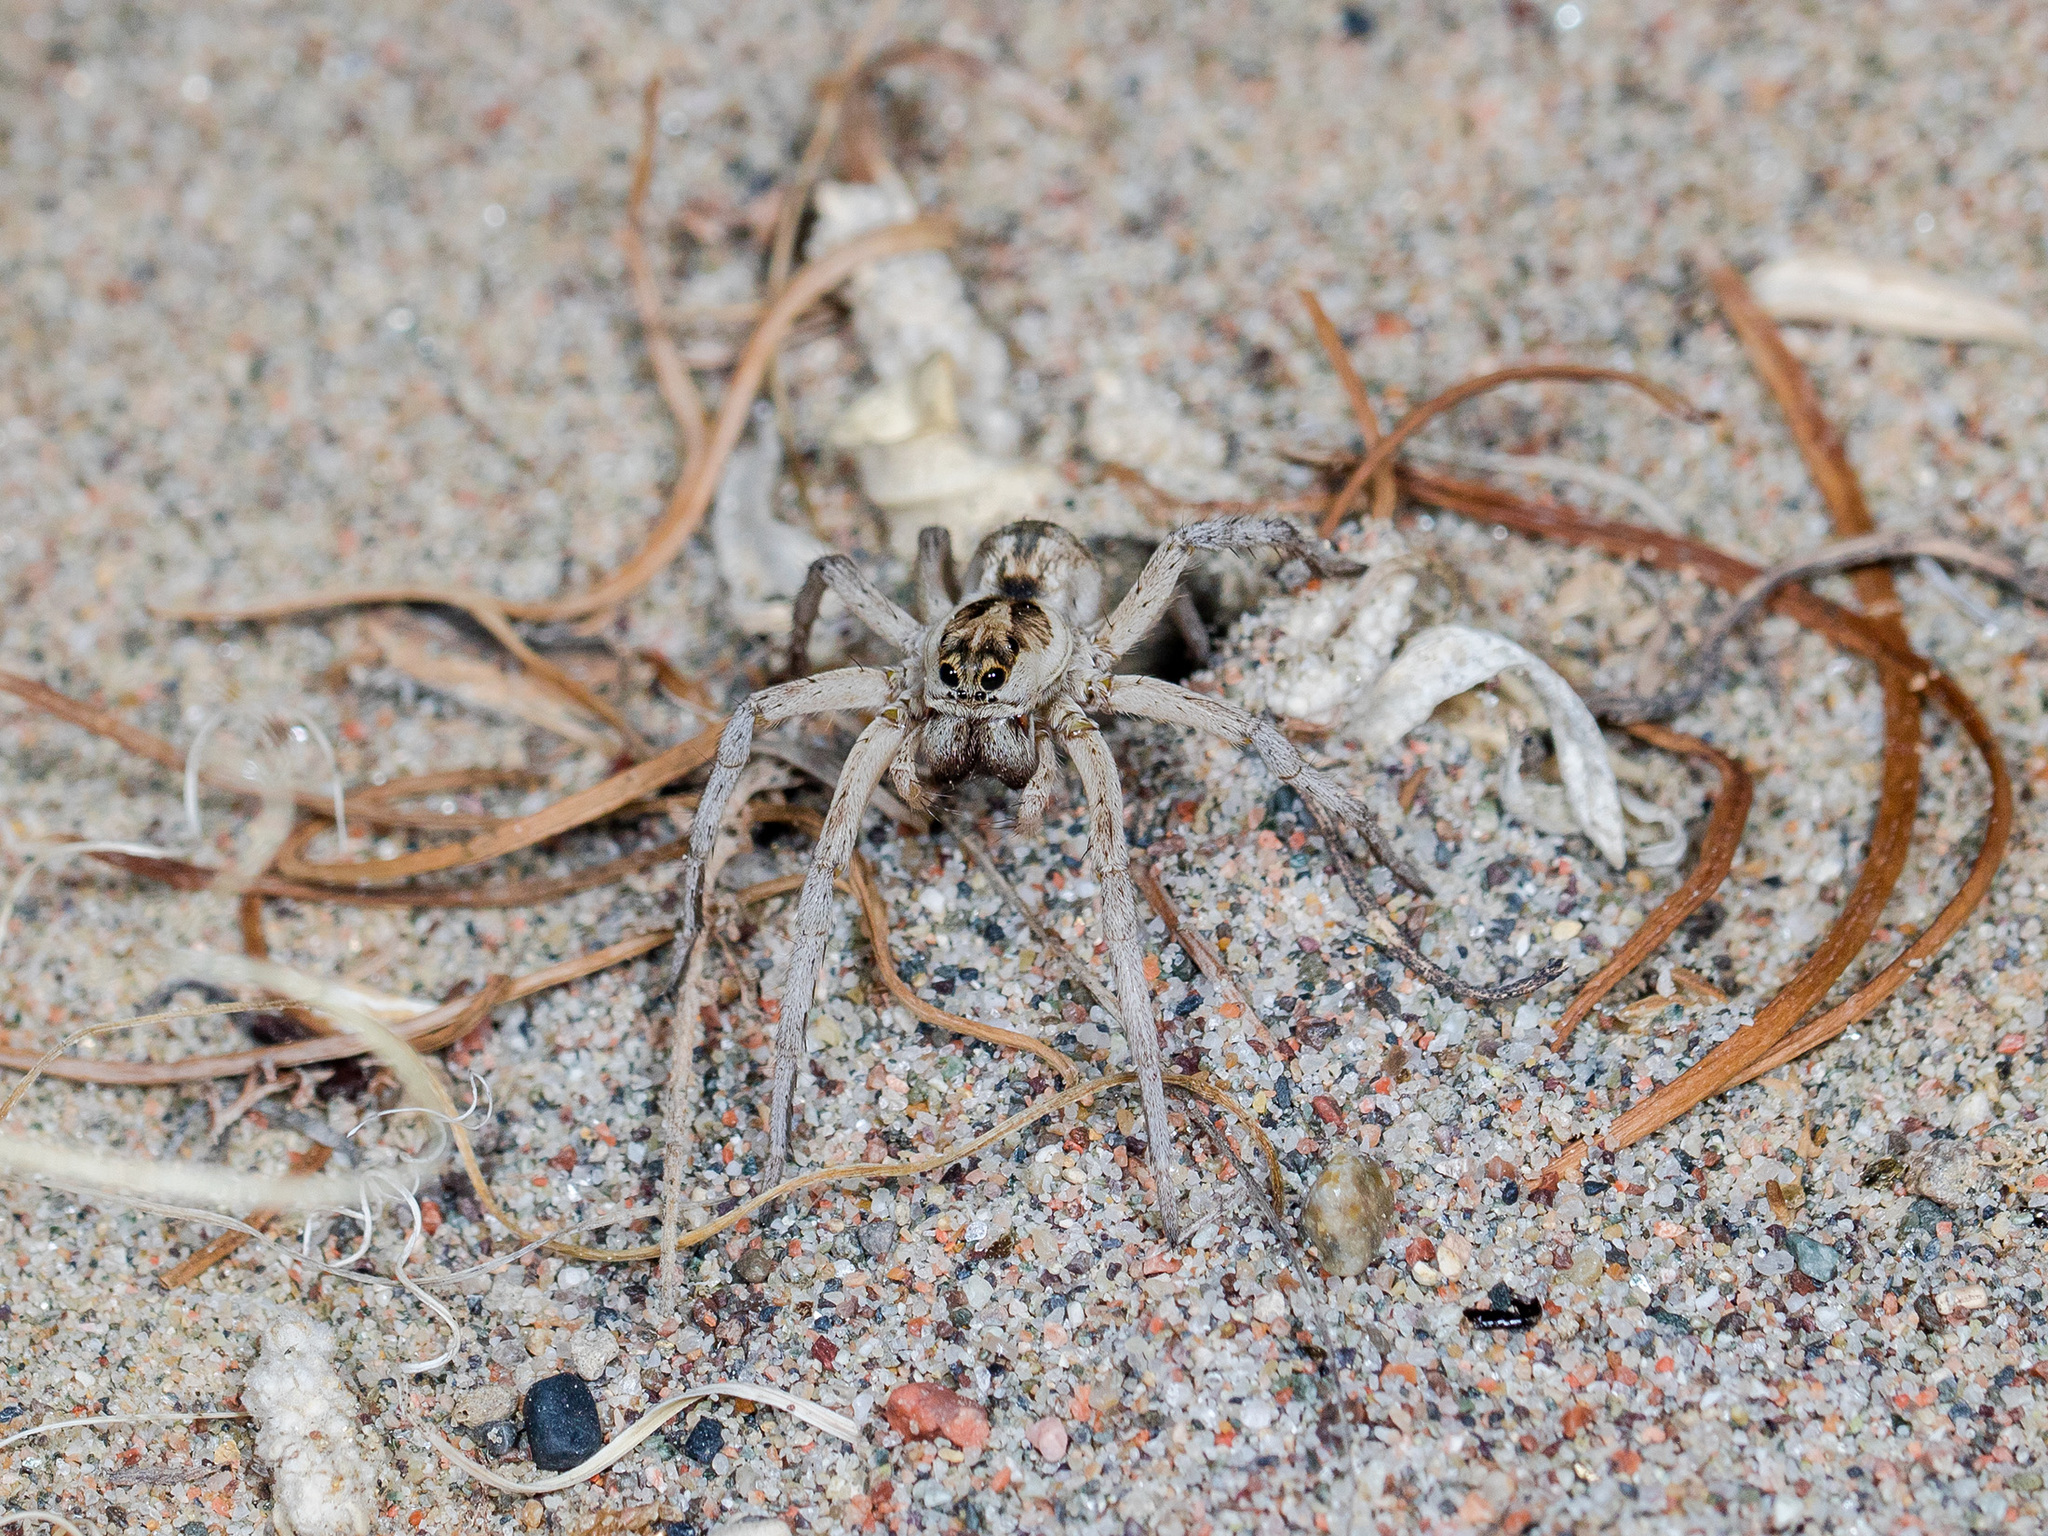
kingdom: Animalia
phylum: Arthropoda
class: Arachnida
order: Araneae
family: Lycosidae
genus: Karakumosa
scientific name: Karakumosa alticeps
